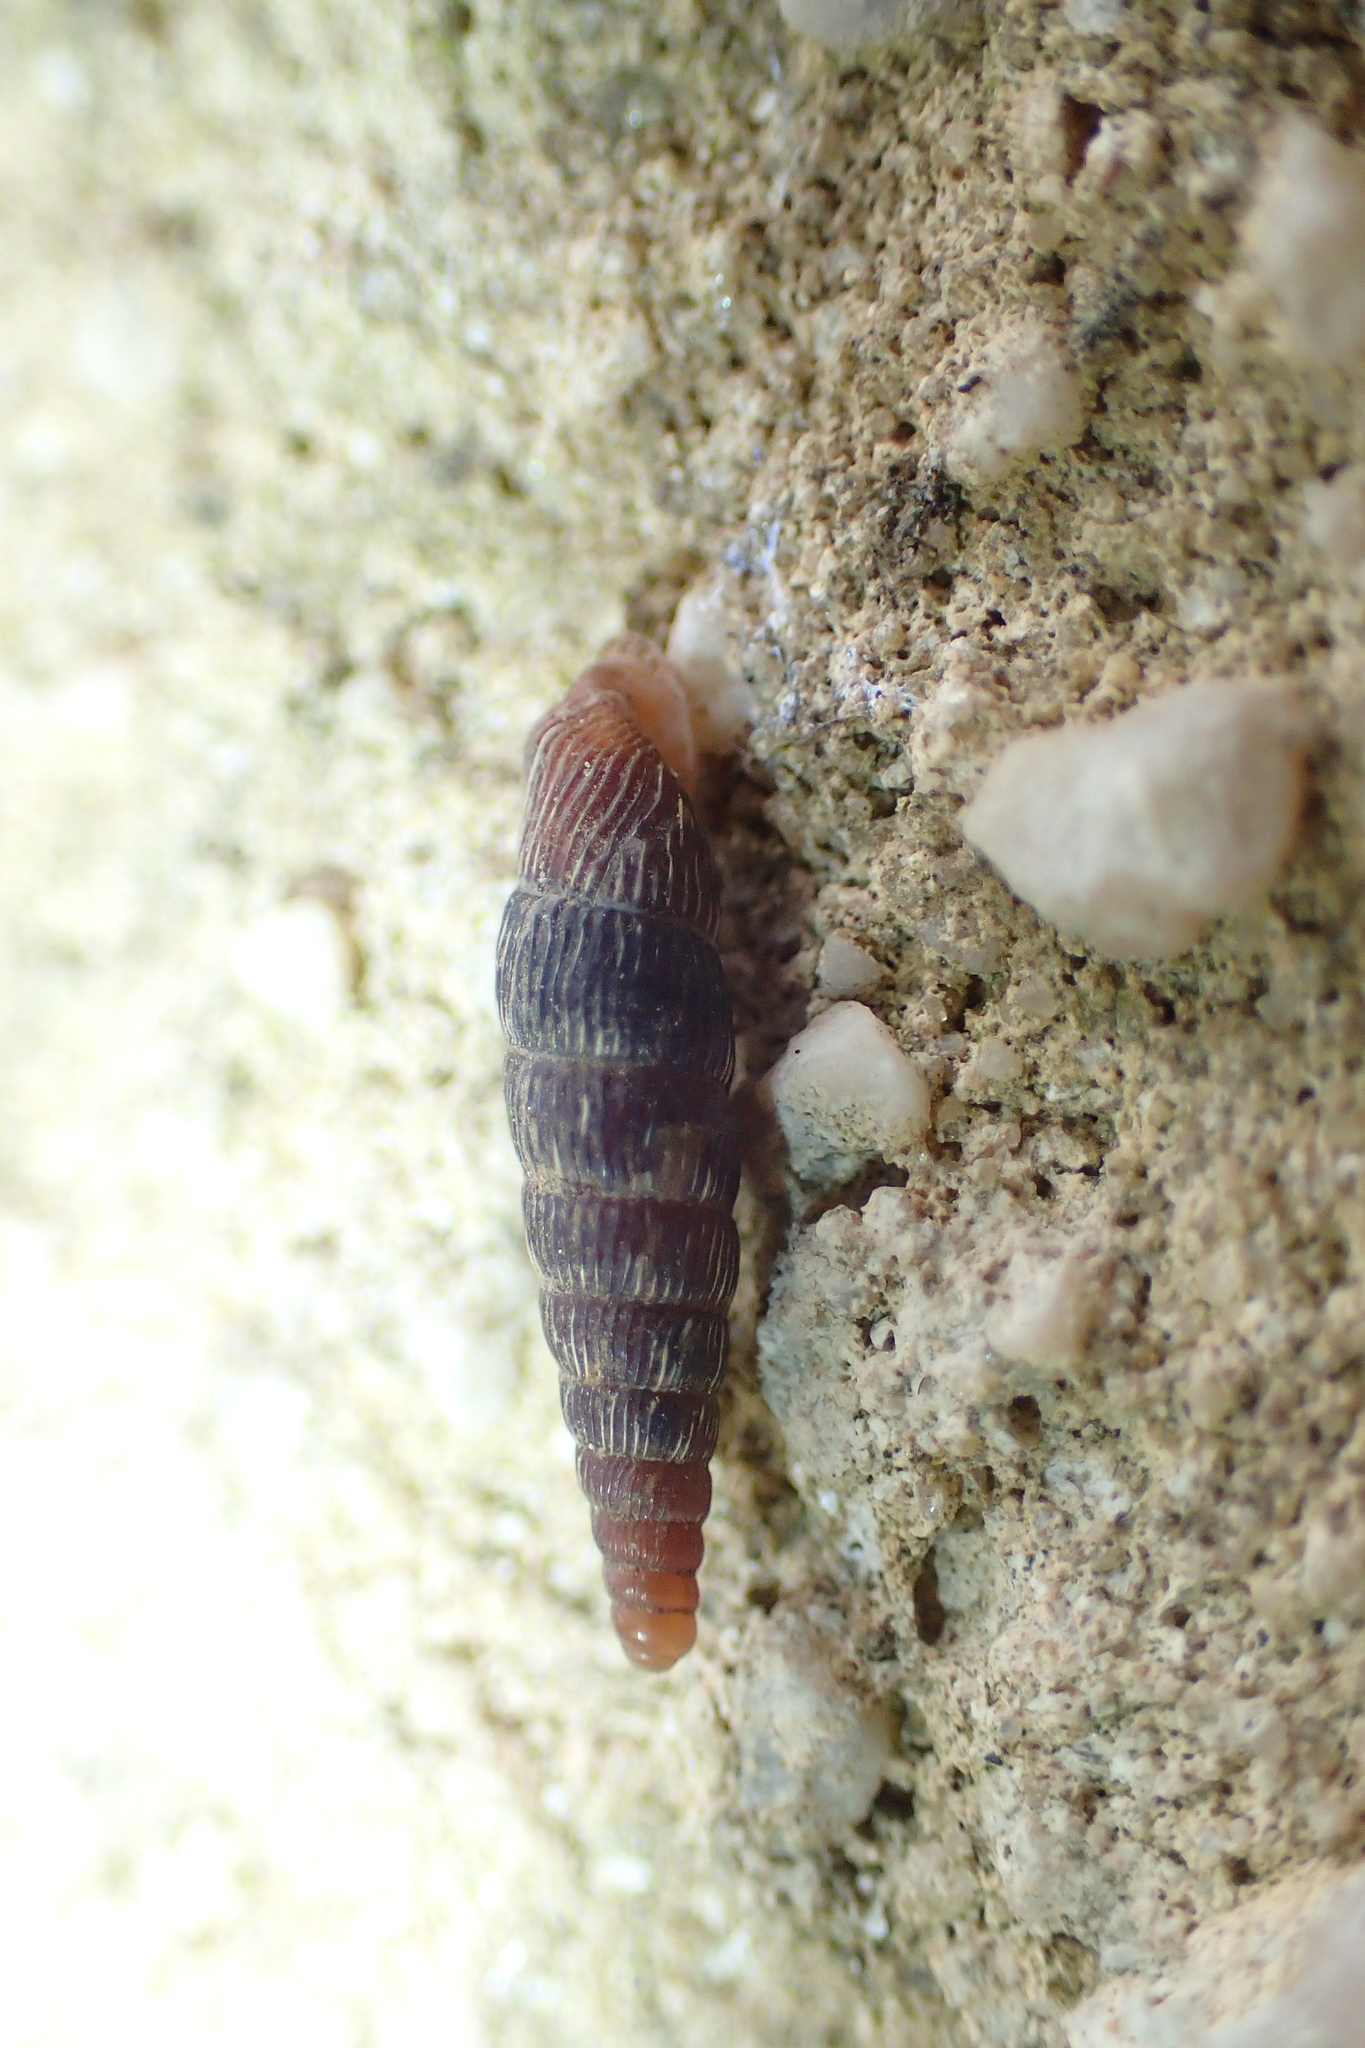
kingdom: Animalia
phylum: Mollusca
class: Gastropoda
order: Stylommatophora
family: Clausiliidae
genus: Clausilia
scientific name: Clausilia rugosa
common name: Tiny door snail
